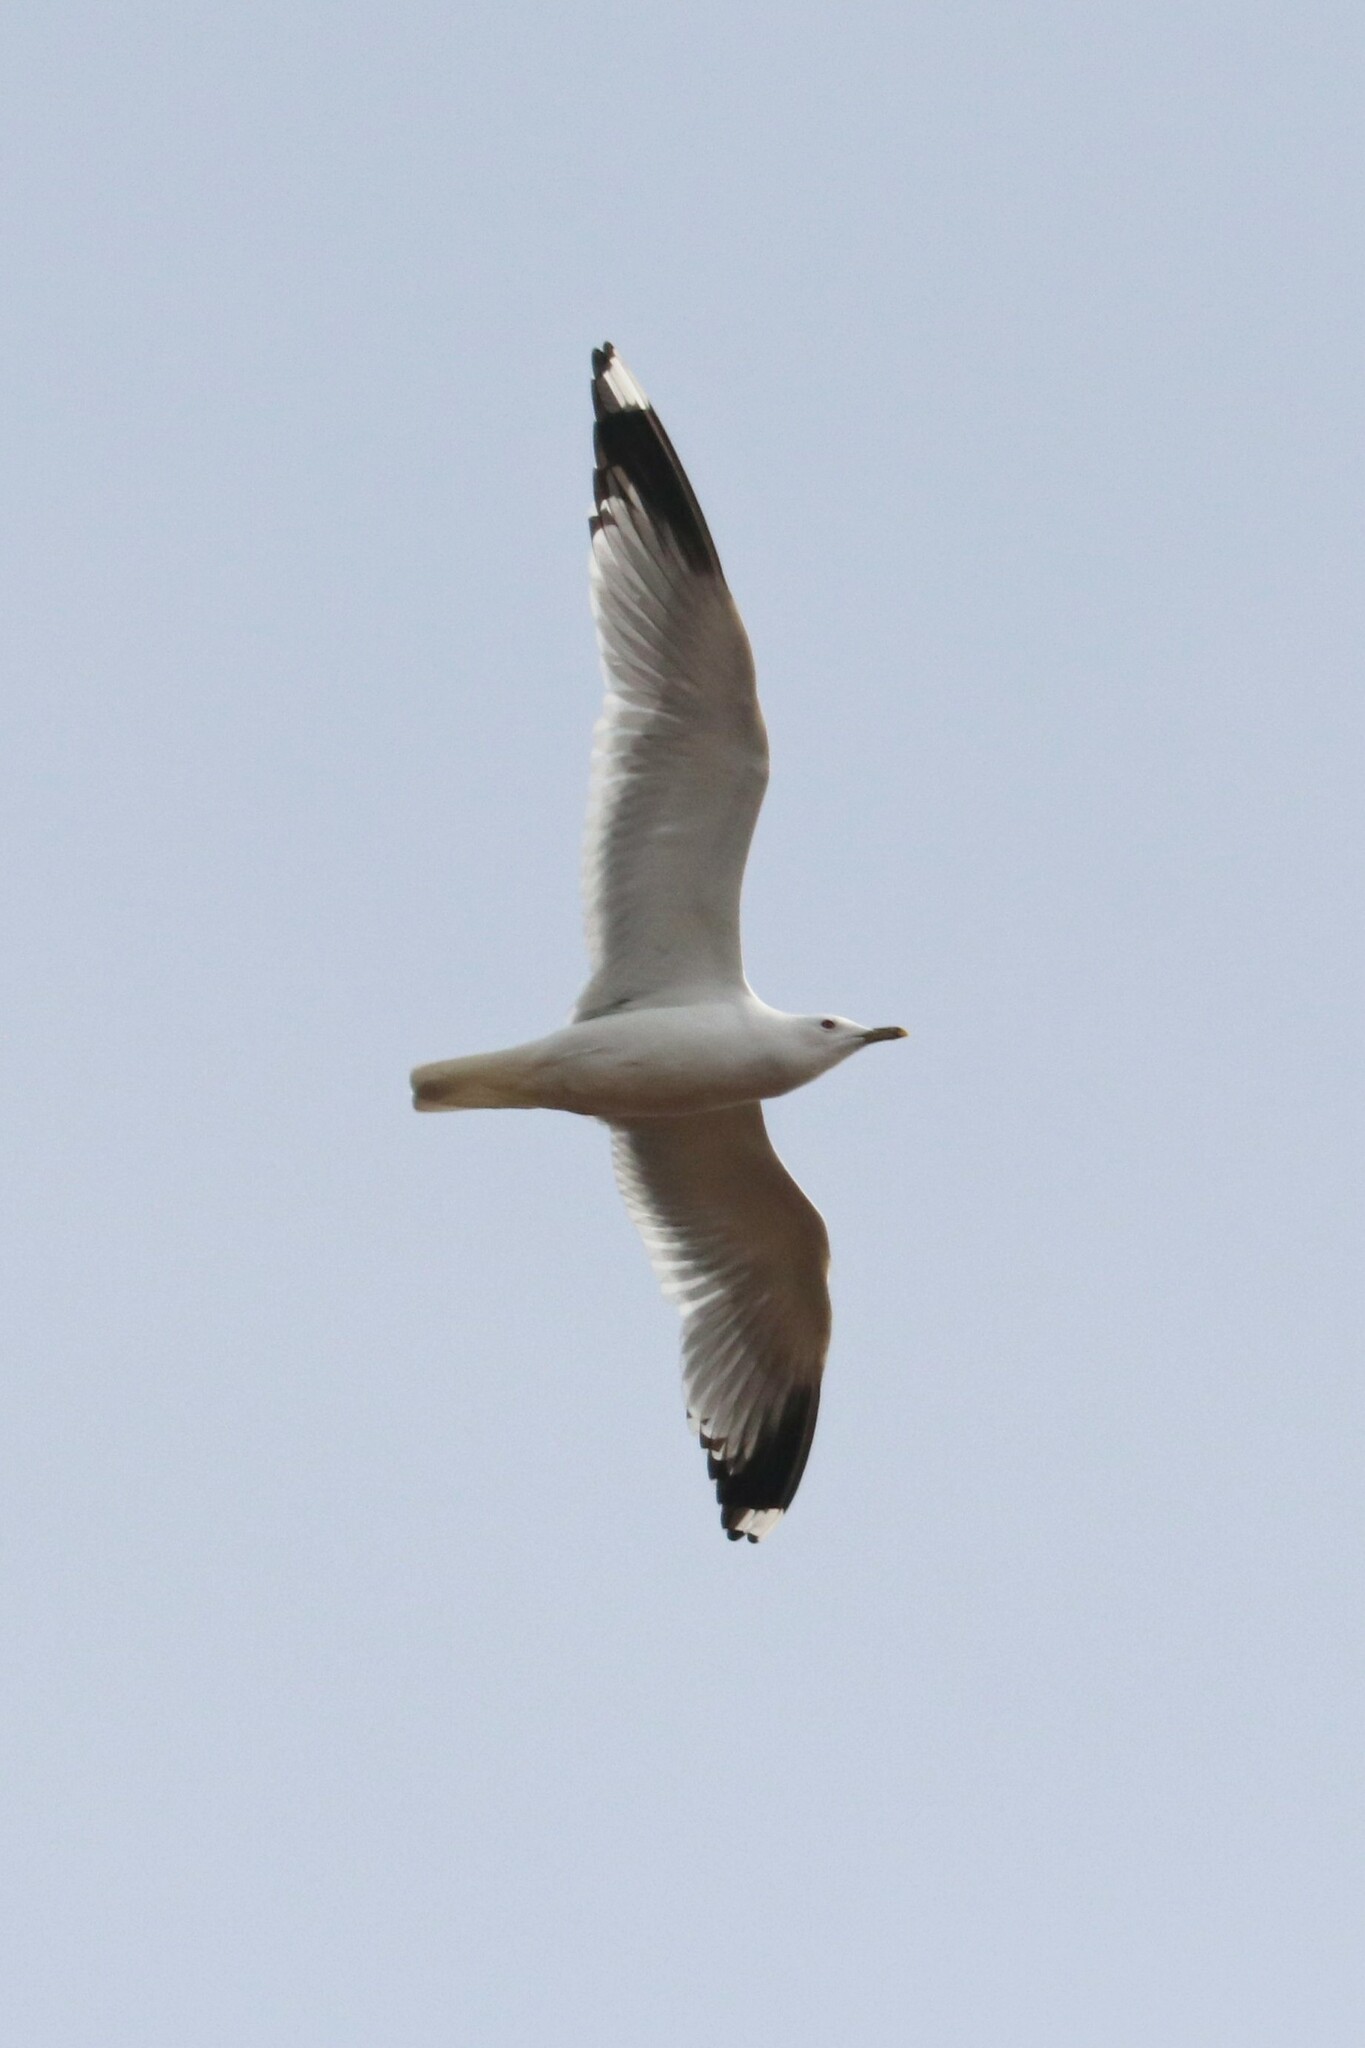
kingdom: Animalia
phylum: Chordata
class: Aves
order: Charadriiformes
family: Laridae
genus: Larus
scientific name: Larus canus
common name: Mew gull
